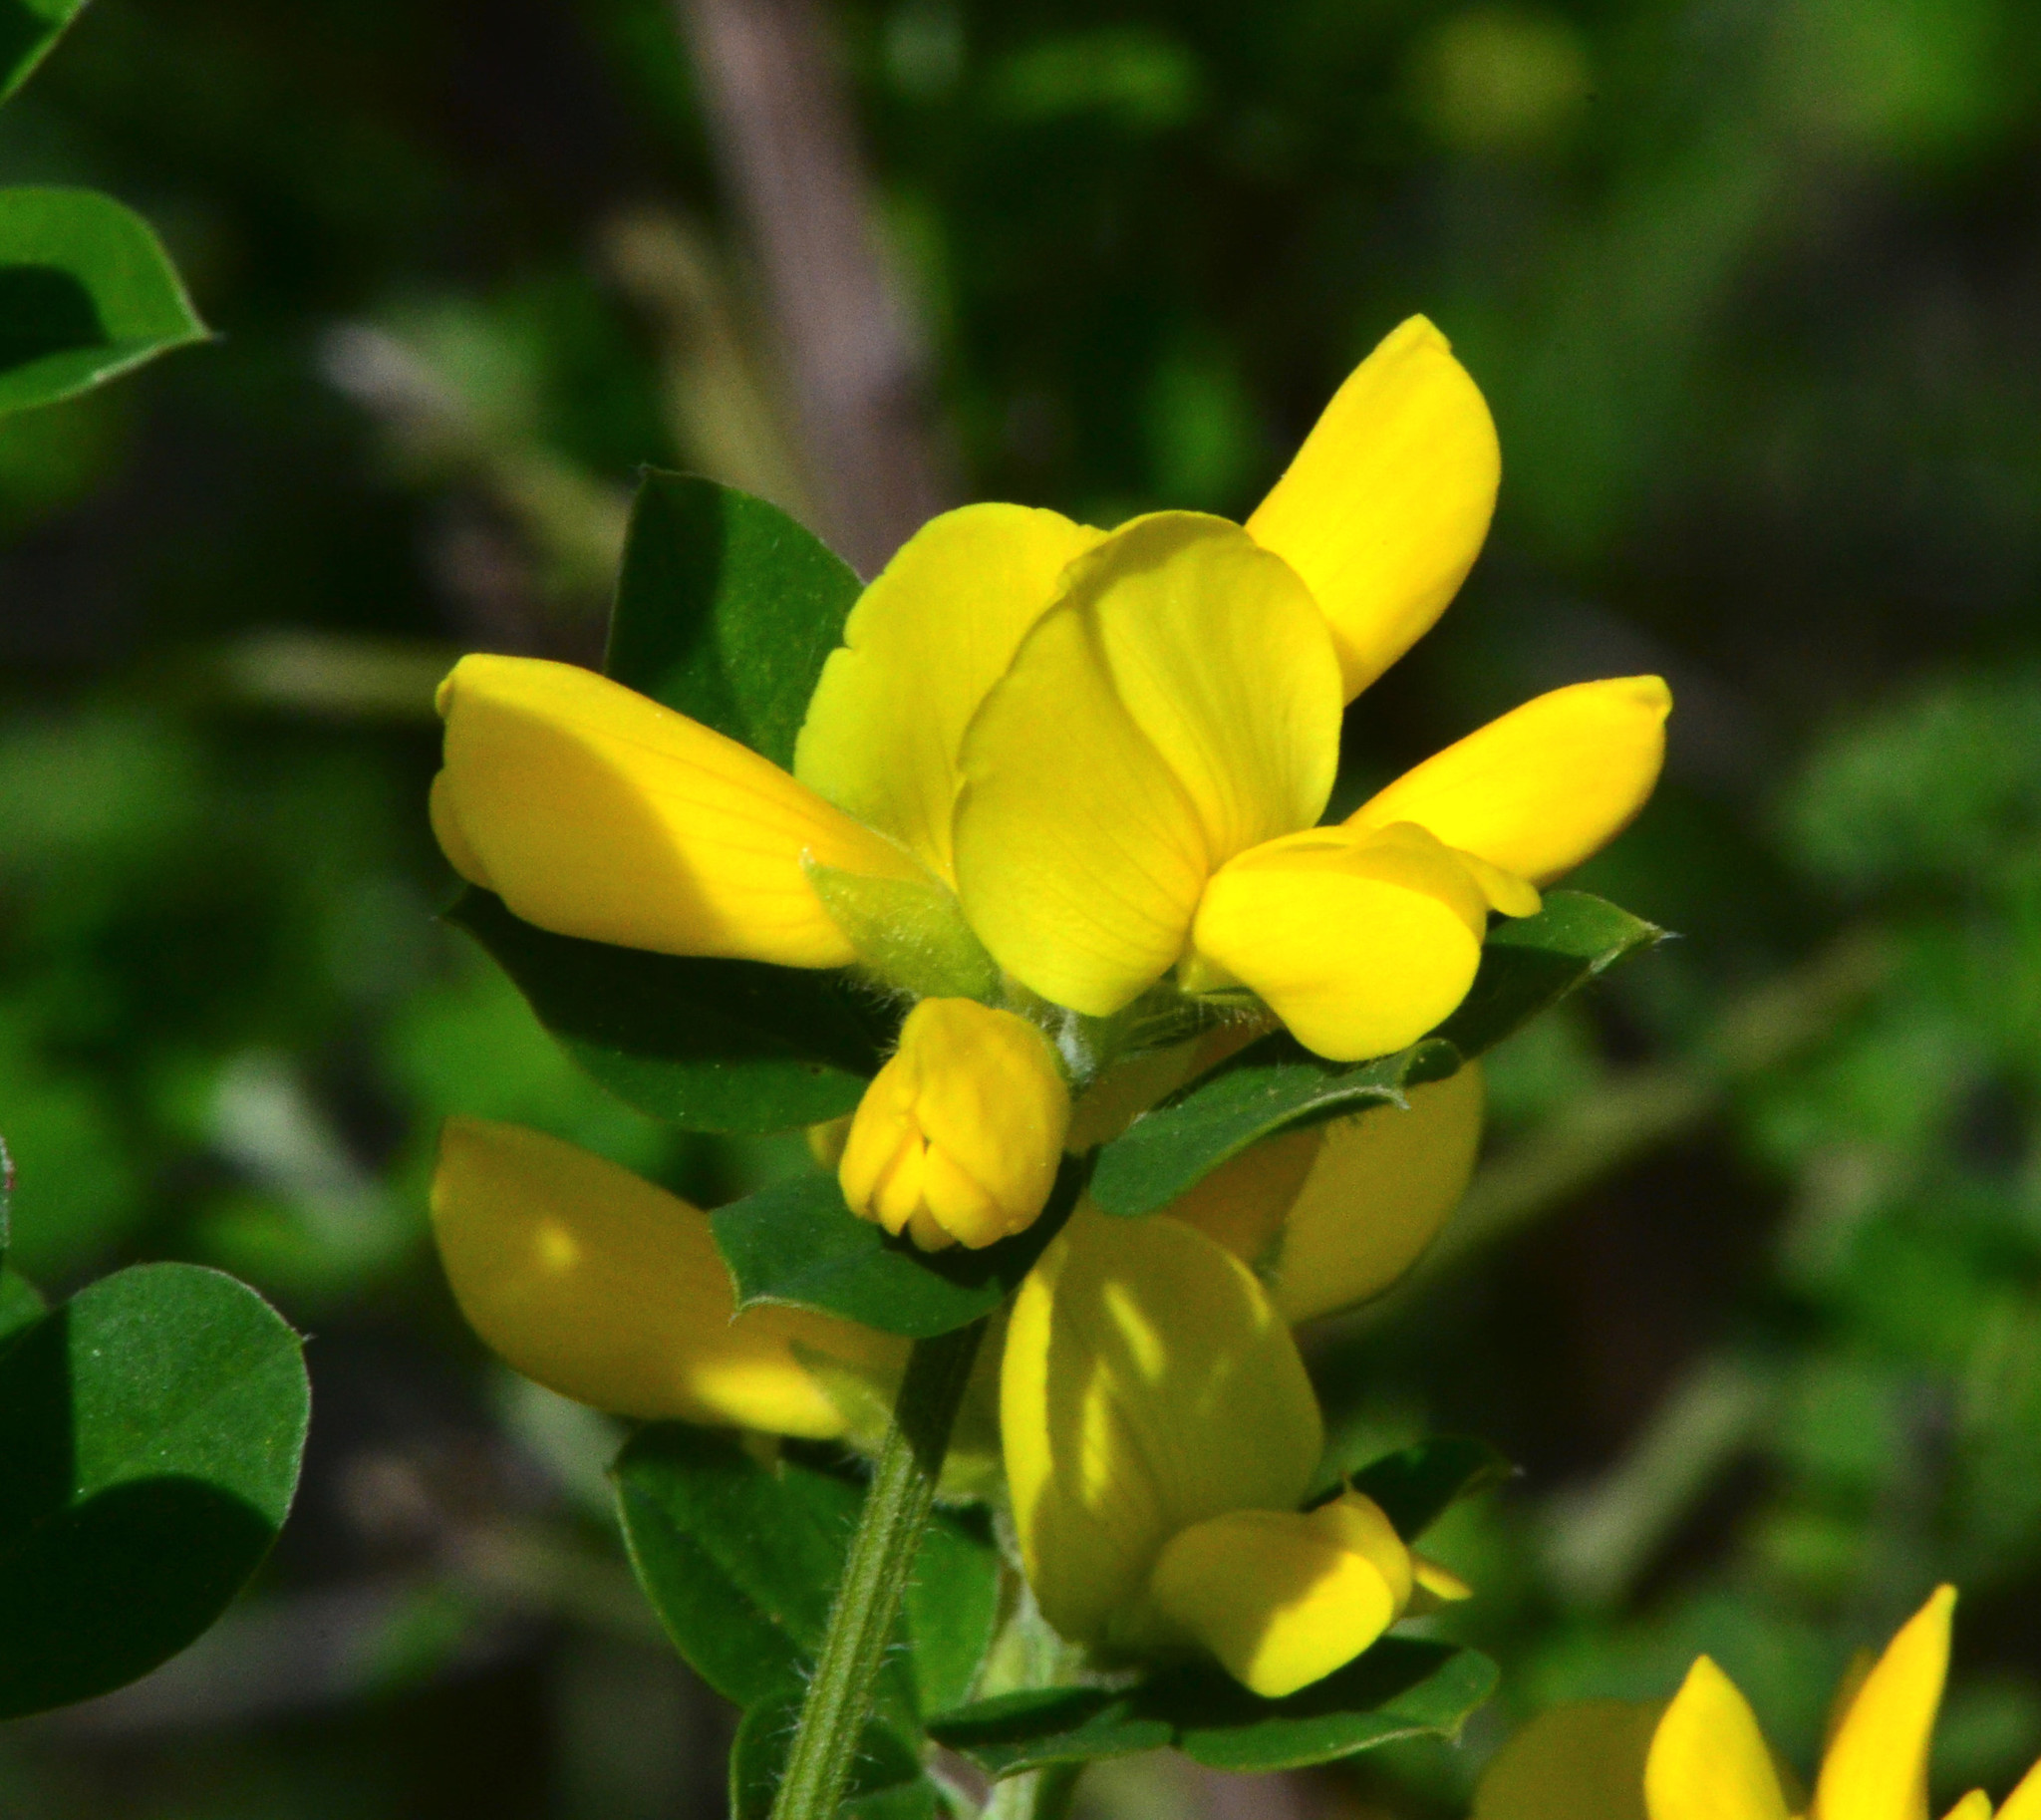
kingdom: Plantae
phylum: Tracheophyta
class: Magnoliopsida
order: Fabales
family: Fabaceae
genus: Genista
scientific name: Genista monspessulana
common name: Montpellier broom
